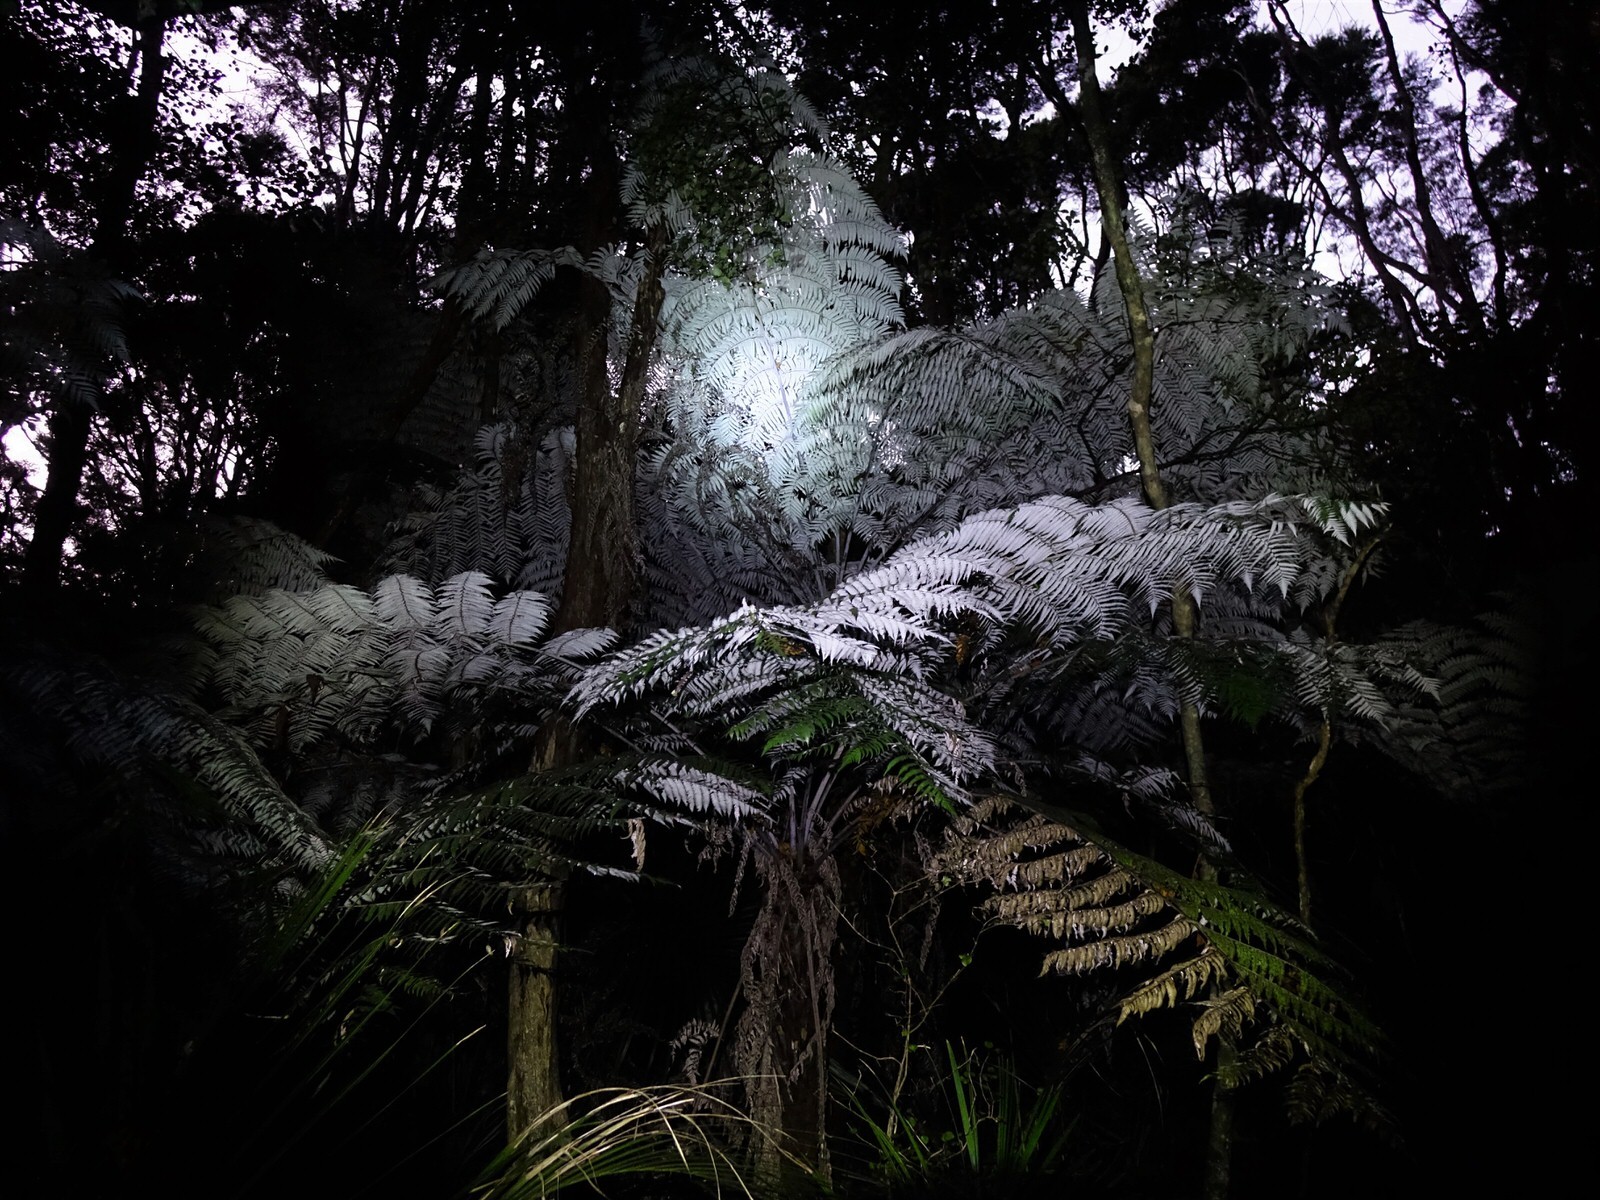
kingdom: Plantae
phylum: Tracheophyta
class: Polypodiopsida
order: Cyatheales
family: Cyatheaceae
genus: Alsophila
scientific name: Alsophila dealbata
